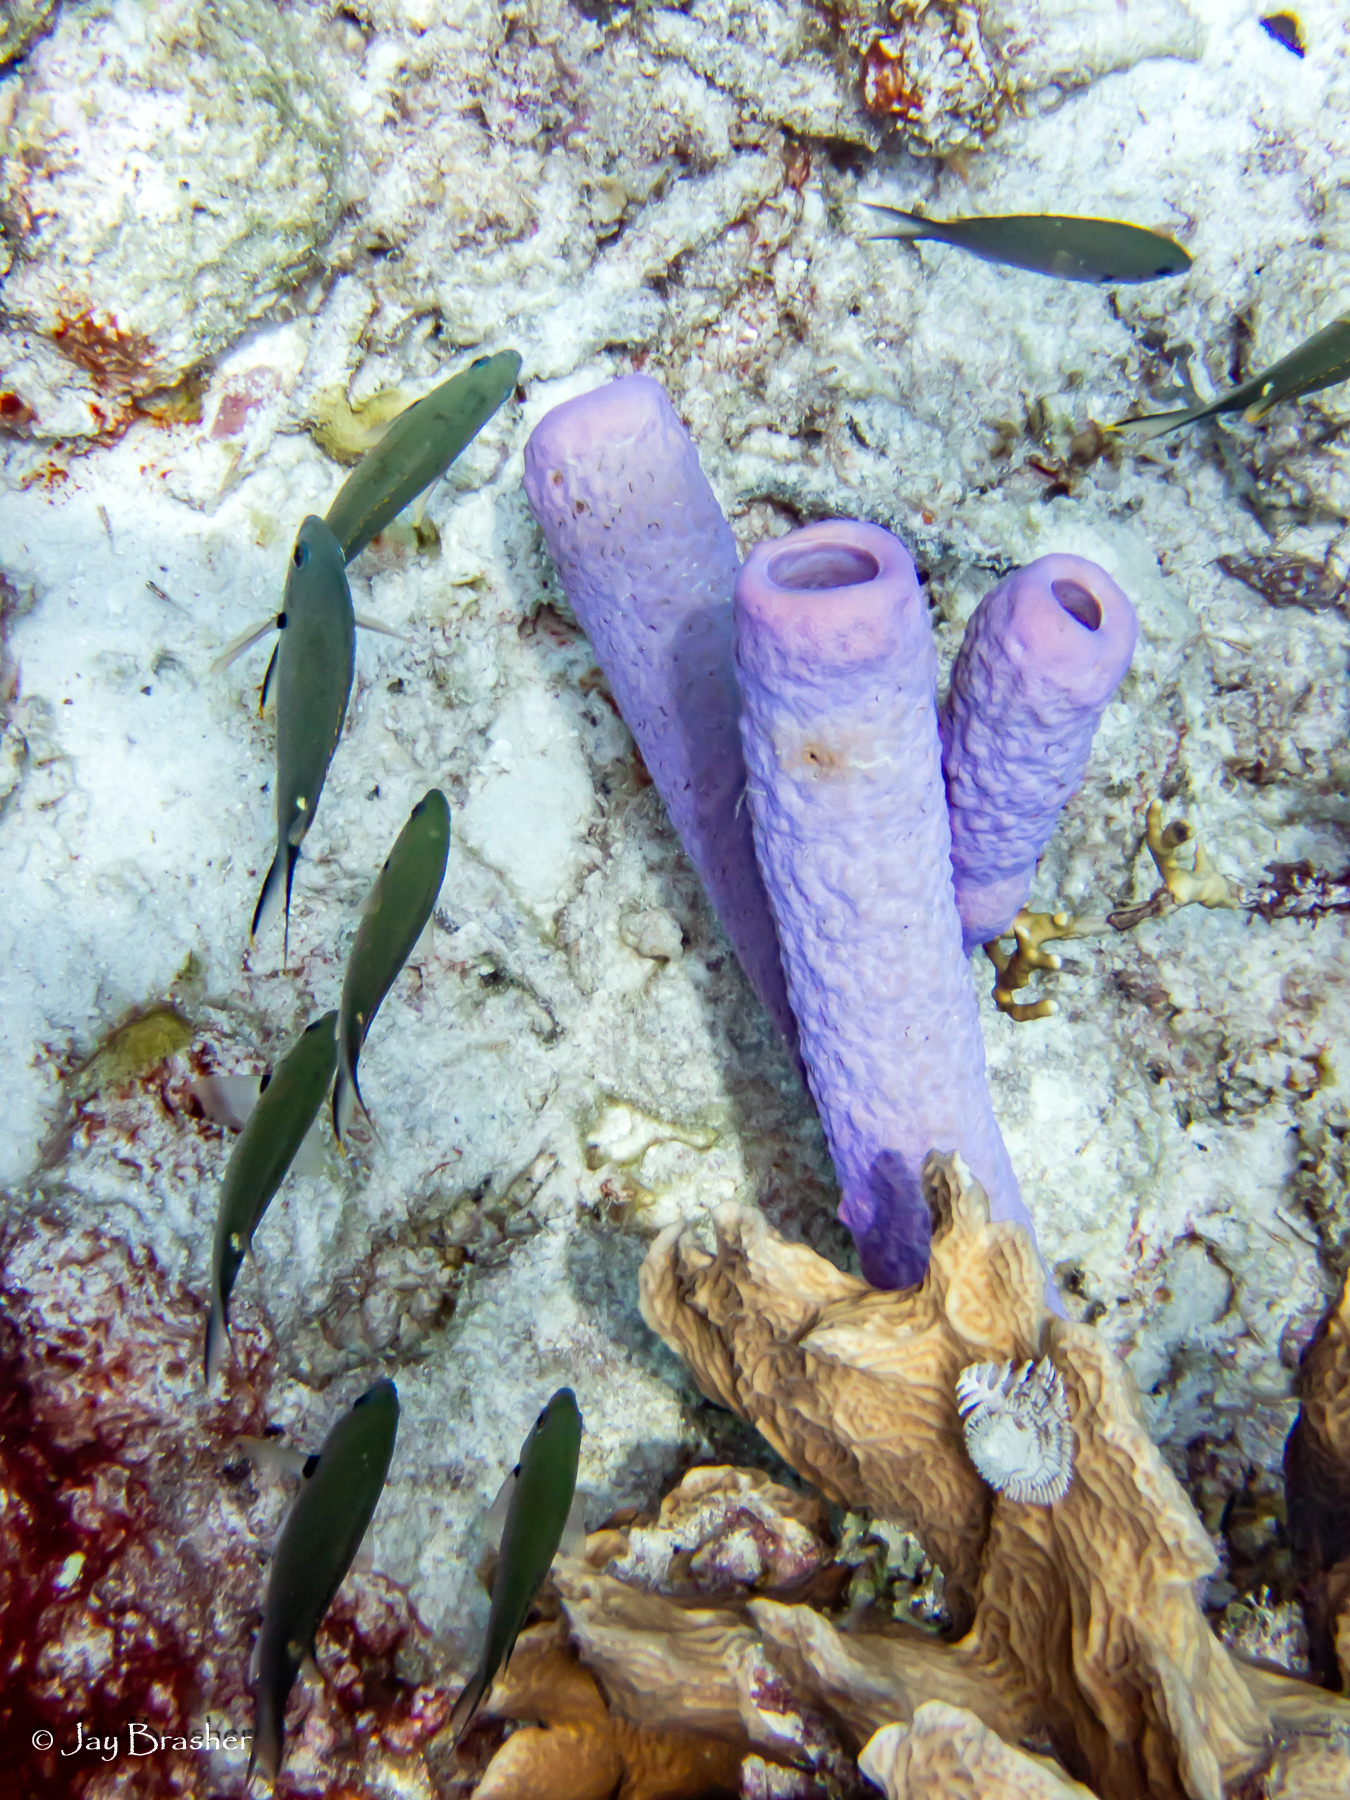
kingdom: Animalia
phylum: Porifera
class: Demospongiae
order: Verongiida
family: Aplysinidae
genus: Aplysina
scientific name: Aplysina archeri
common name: Stove-pipe sponge
